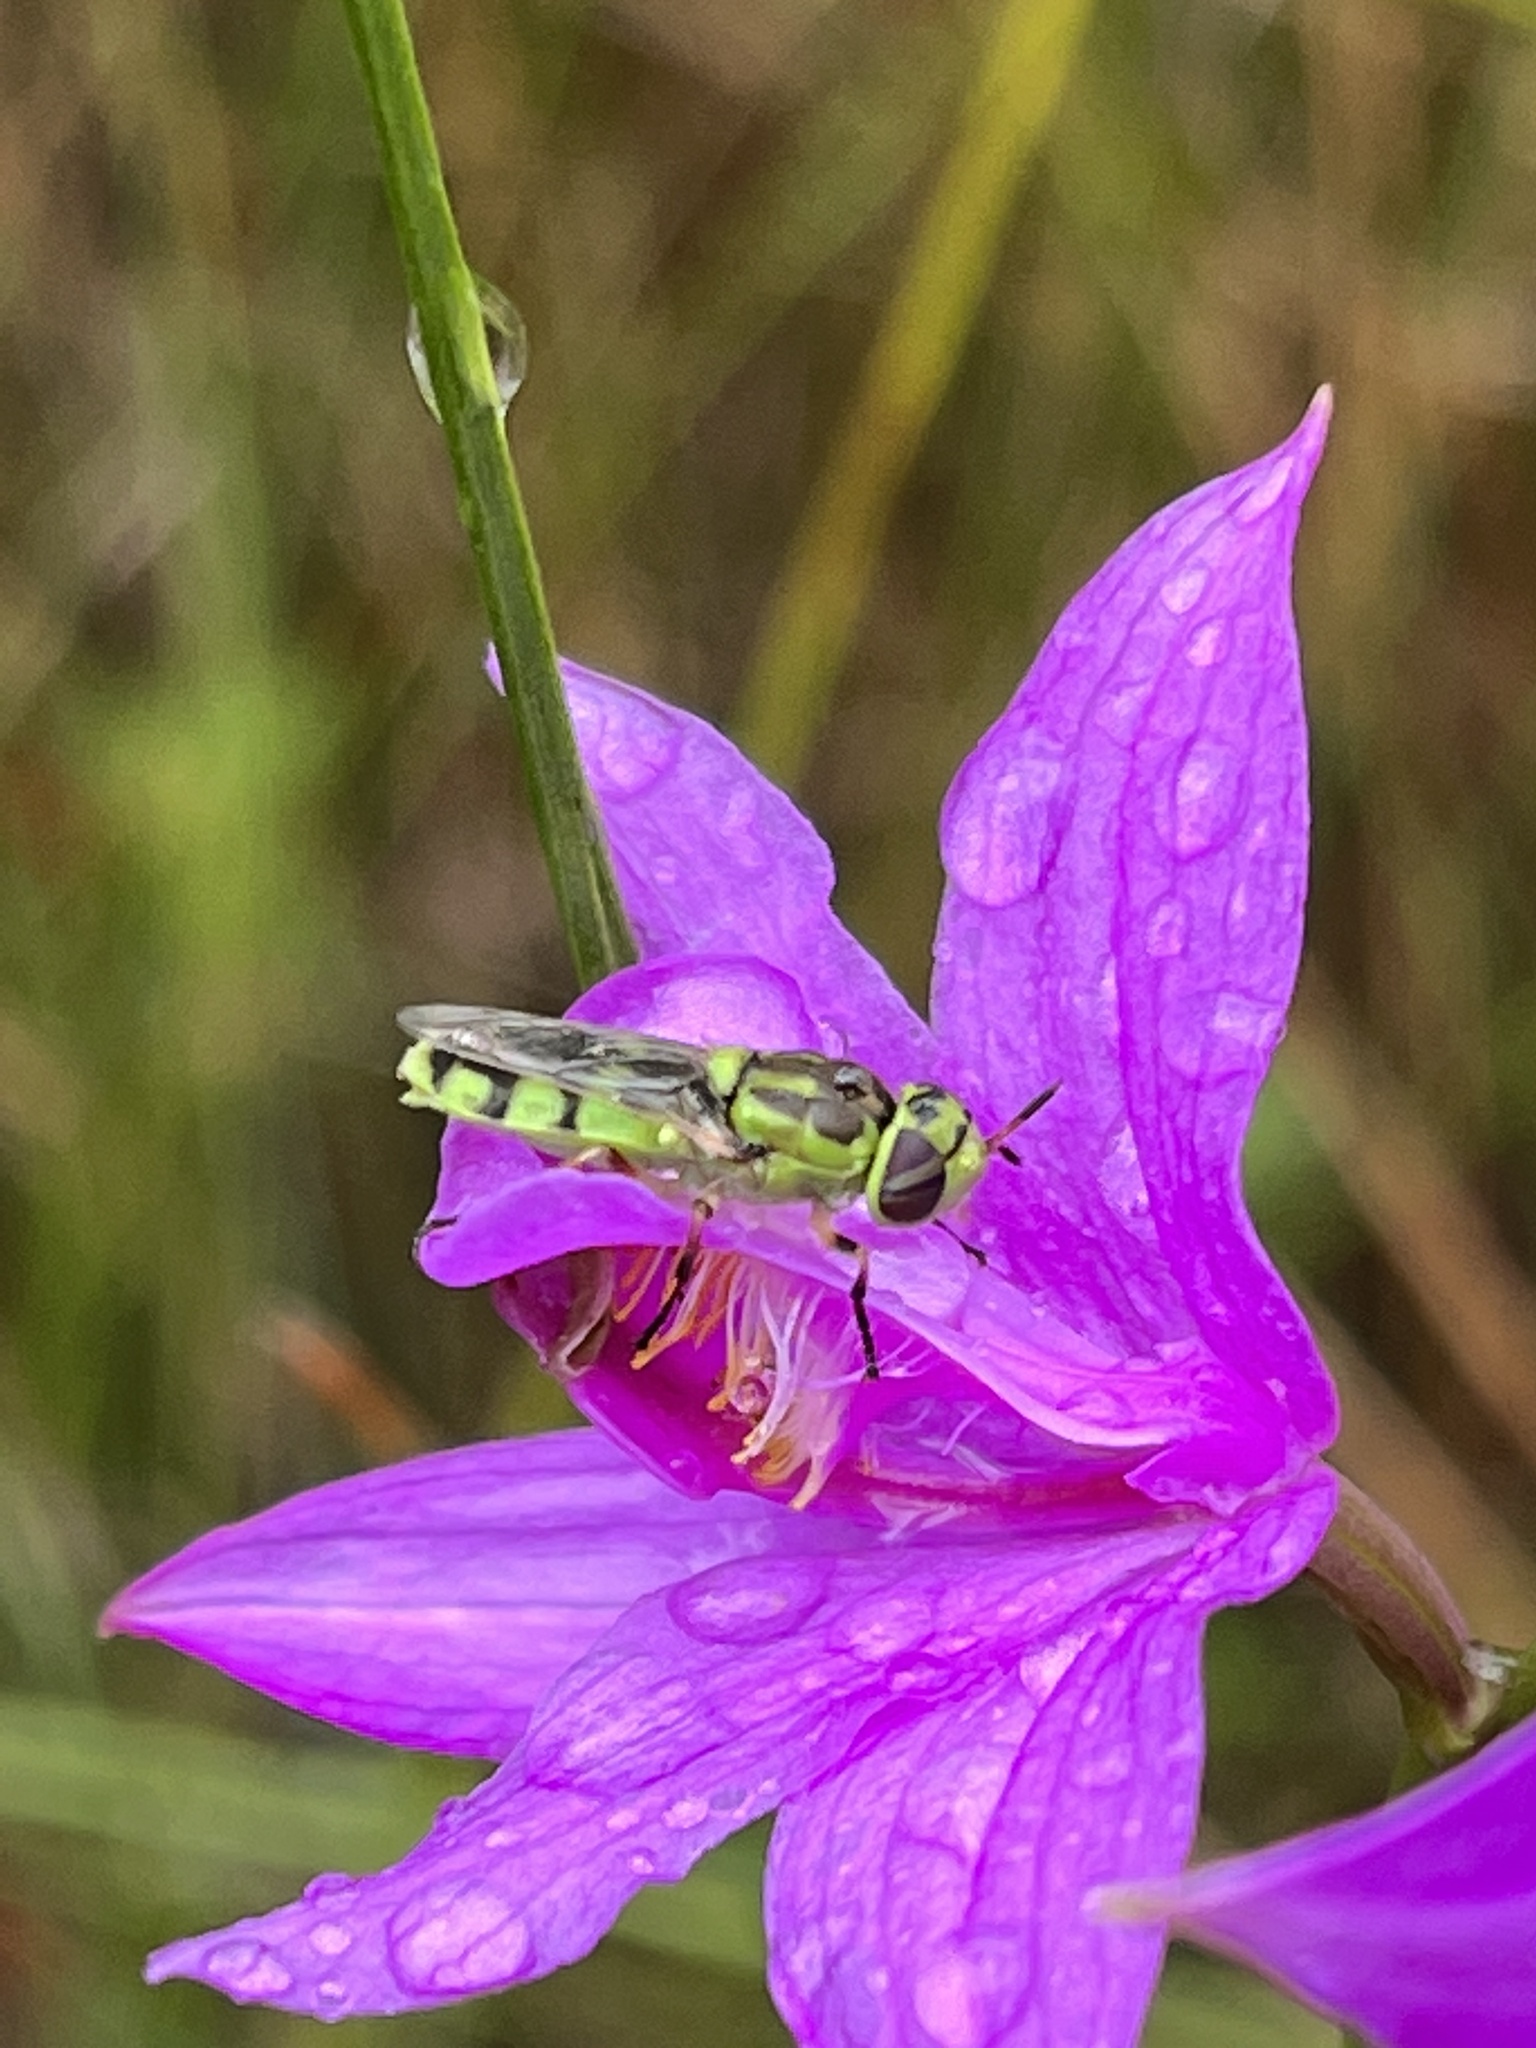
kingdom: Animalia
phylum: Arthropoda
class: Insecta
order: Diptera
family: Stratiomyidae
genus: Hedriodiscus
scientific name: Hedriodiscus binotatus
